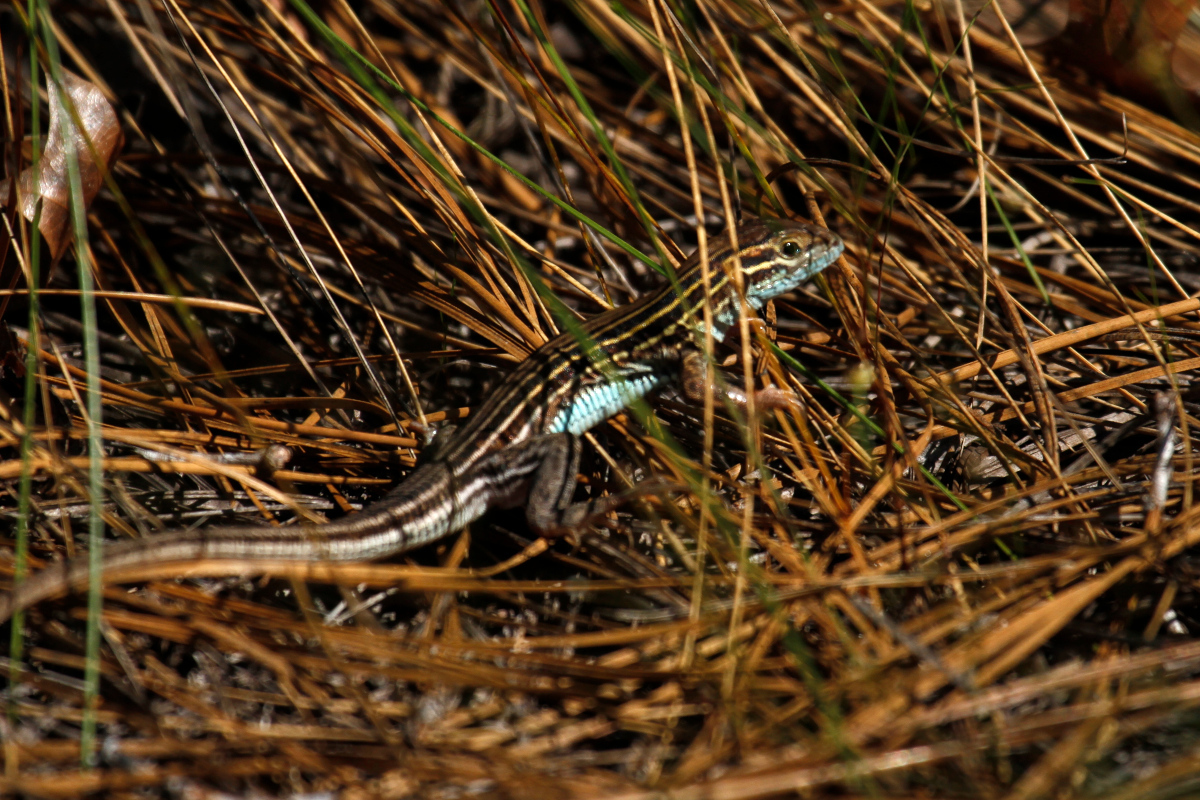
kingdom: Animalia
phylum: Chordata
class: Squamata
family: Teiidae
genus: Aspidoscelis
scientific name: Aspidoscelis sexlineatus
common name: Six-lined racerunner
